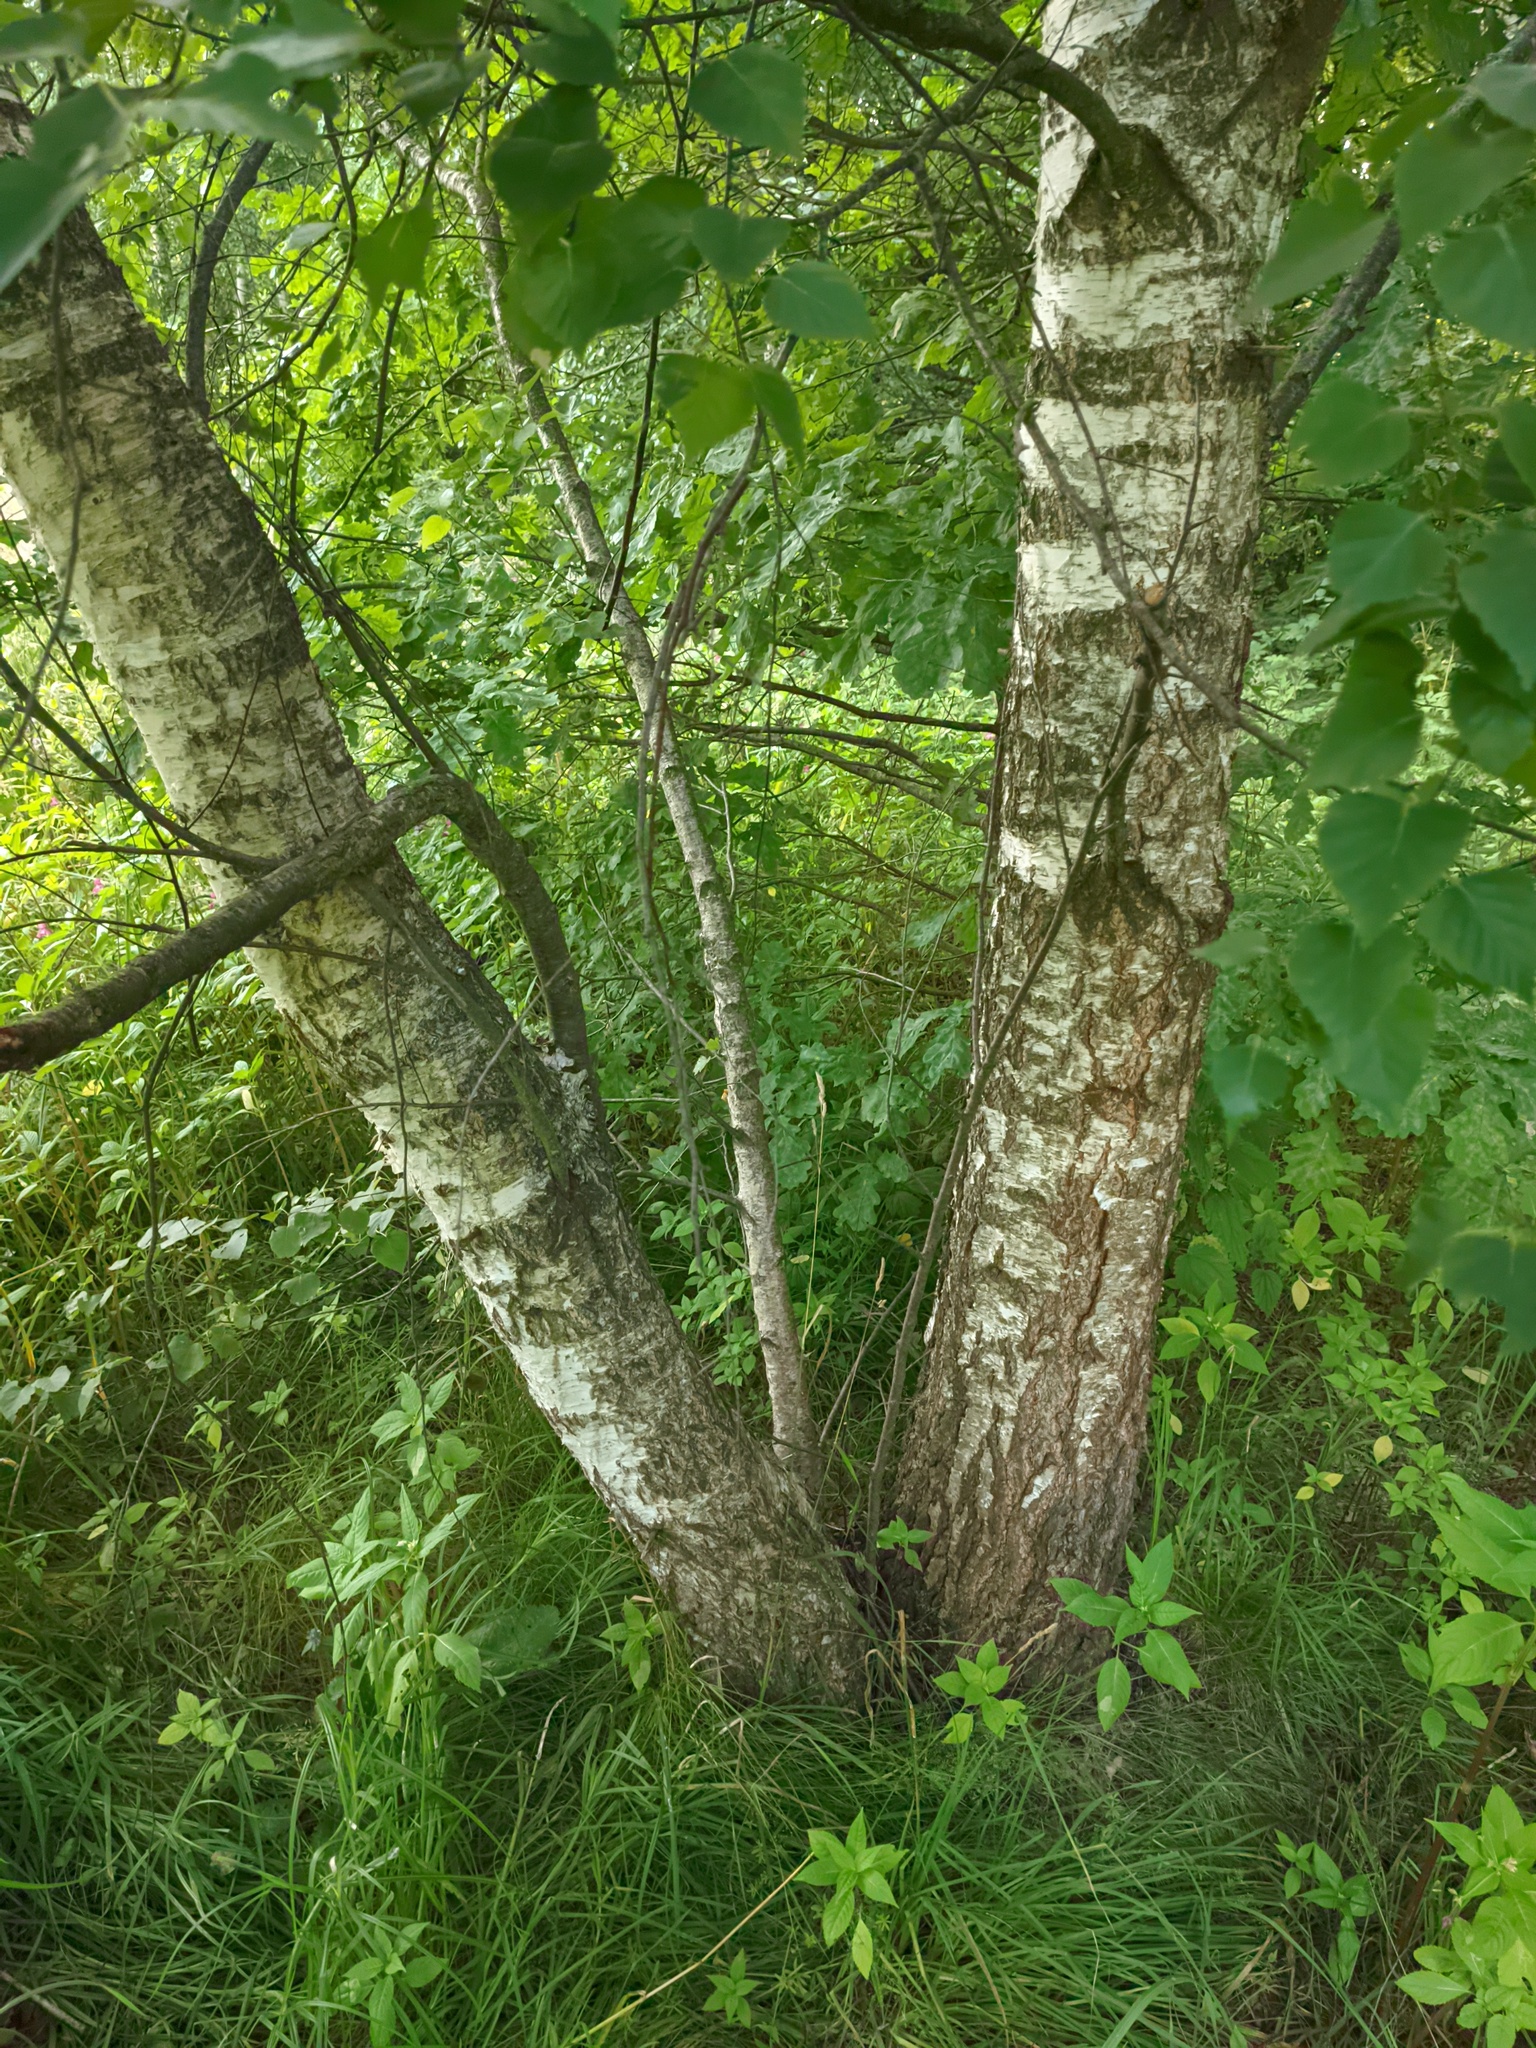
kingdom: Plantae
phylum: Tracheophyta
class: Magnoliopsida
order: Fagales
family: Betulaceae
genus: Betula
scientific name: Betula pendula
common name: Silver birch
